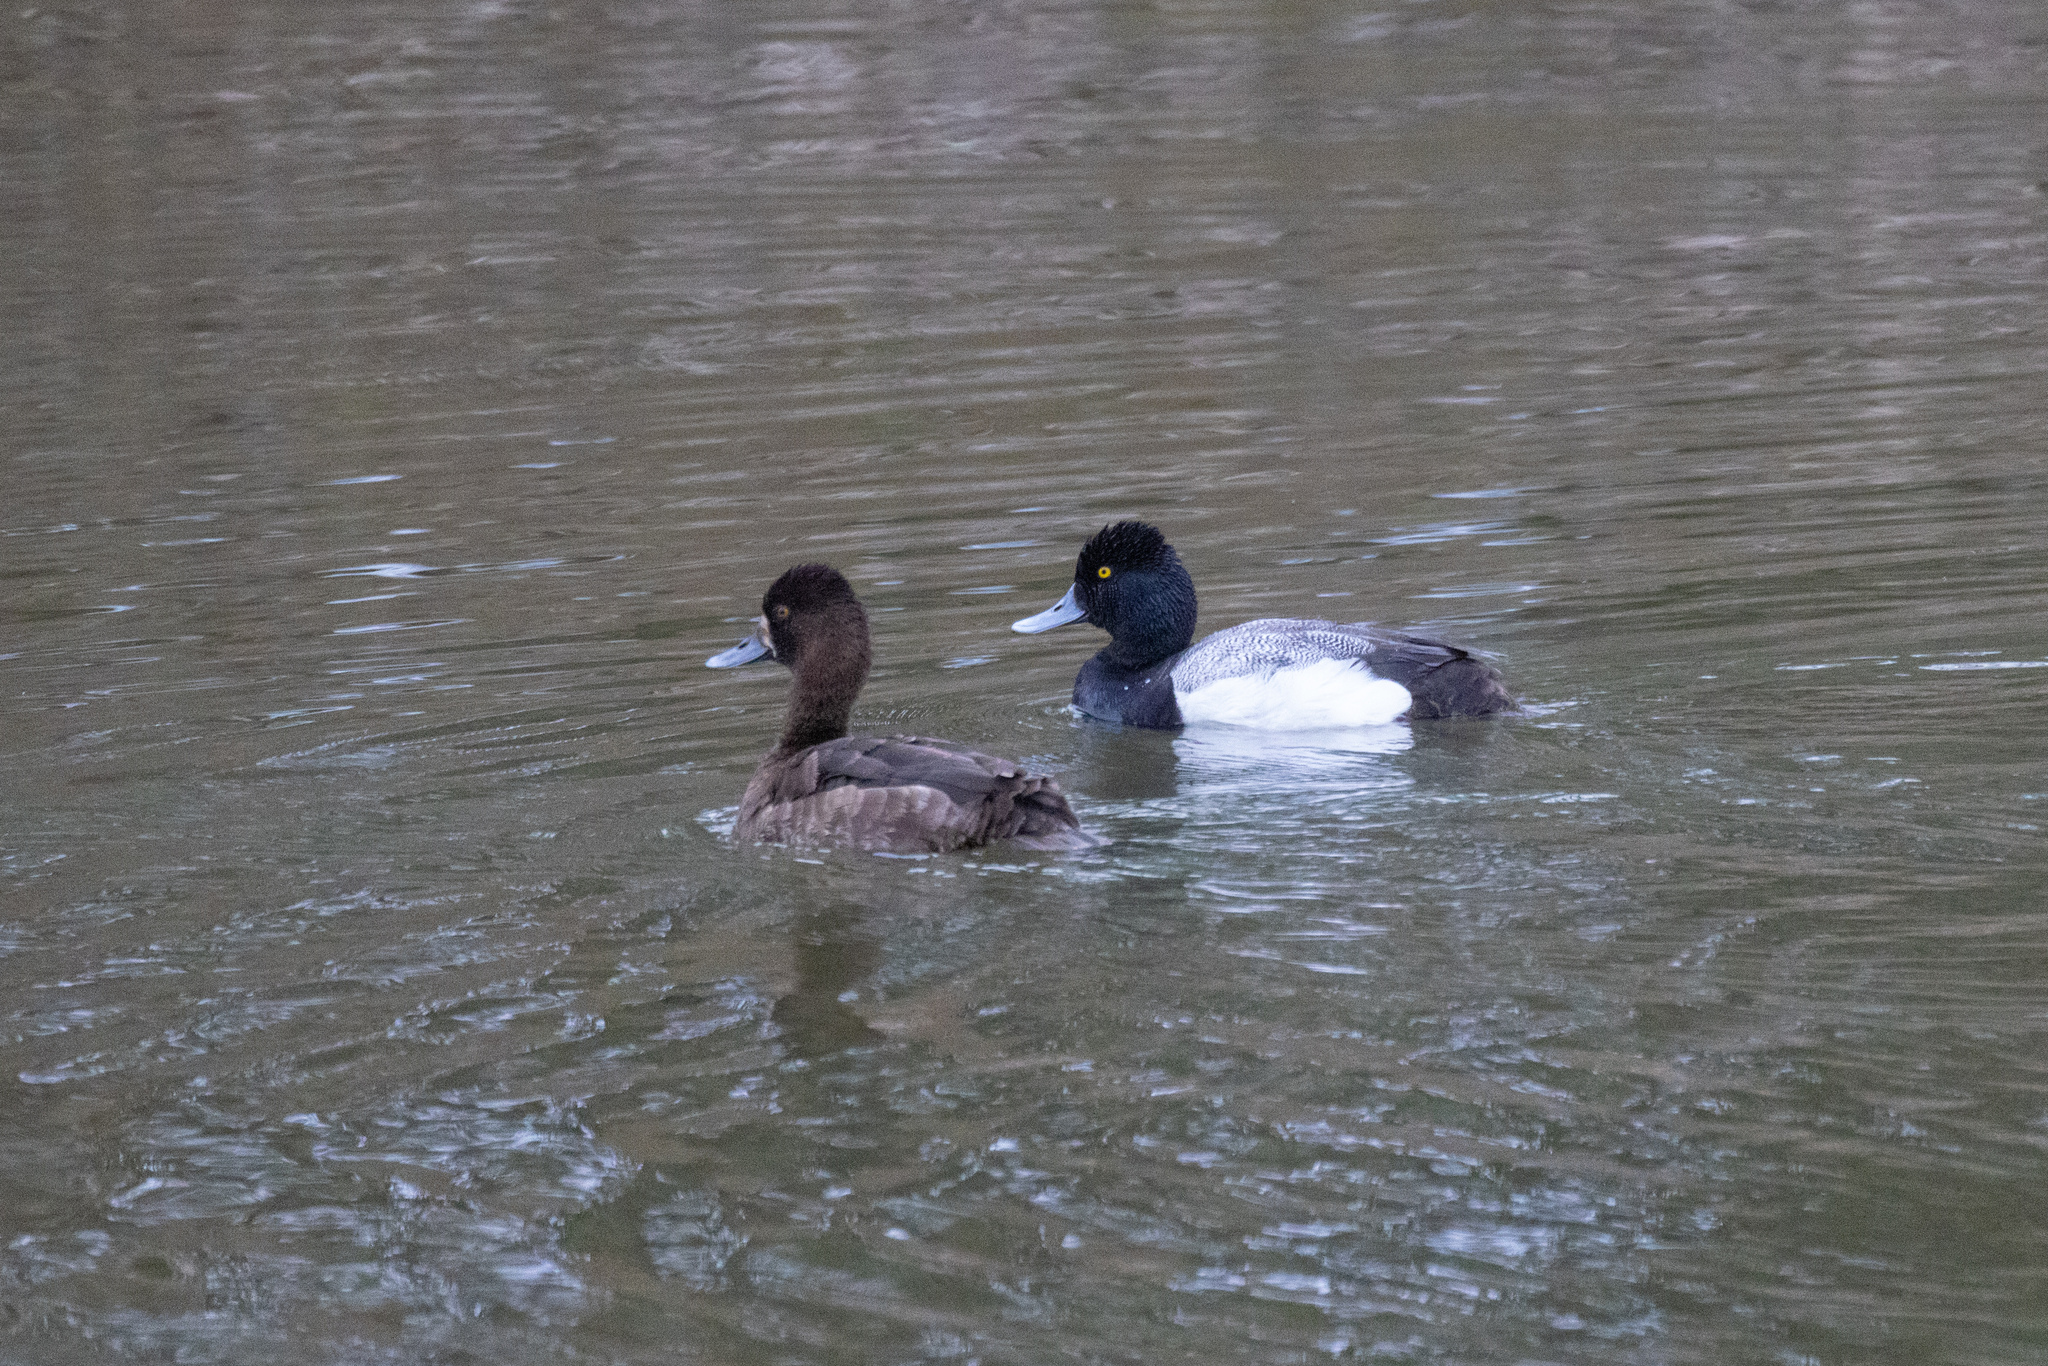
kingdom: Animalia
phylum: Chordata
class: Aves
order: Anseriformes
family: Anatidae
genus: Aythya
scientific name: Aythya affinis
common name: Lesser scaup
